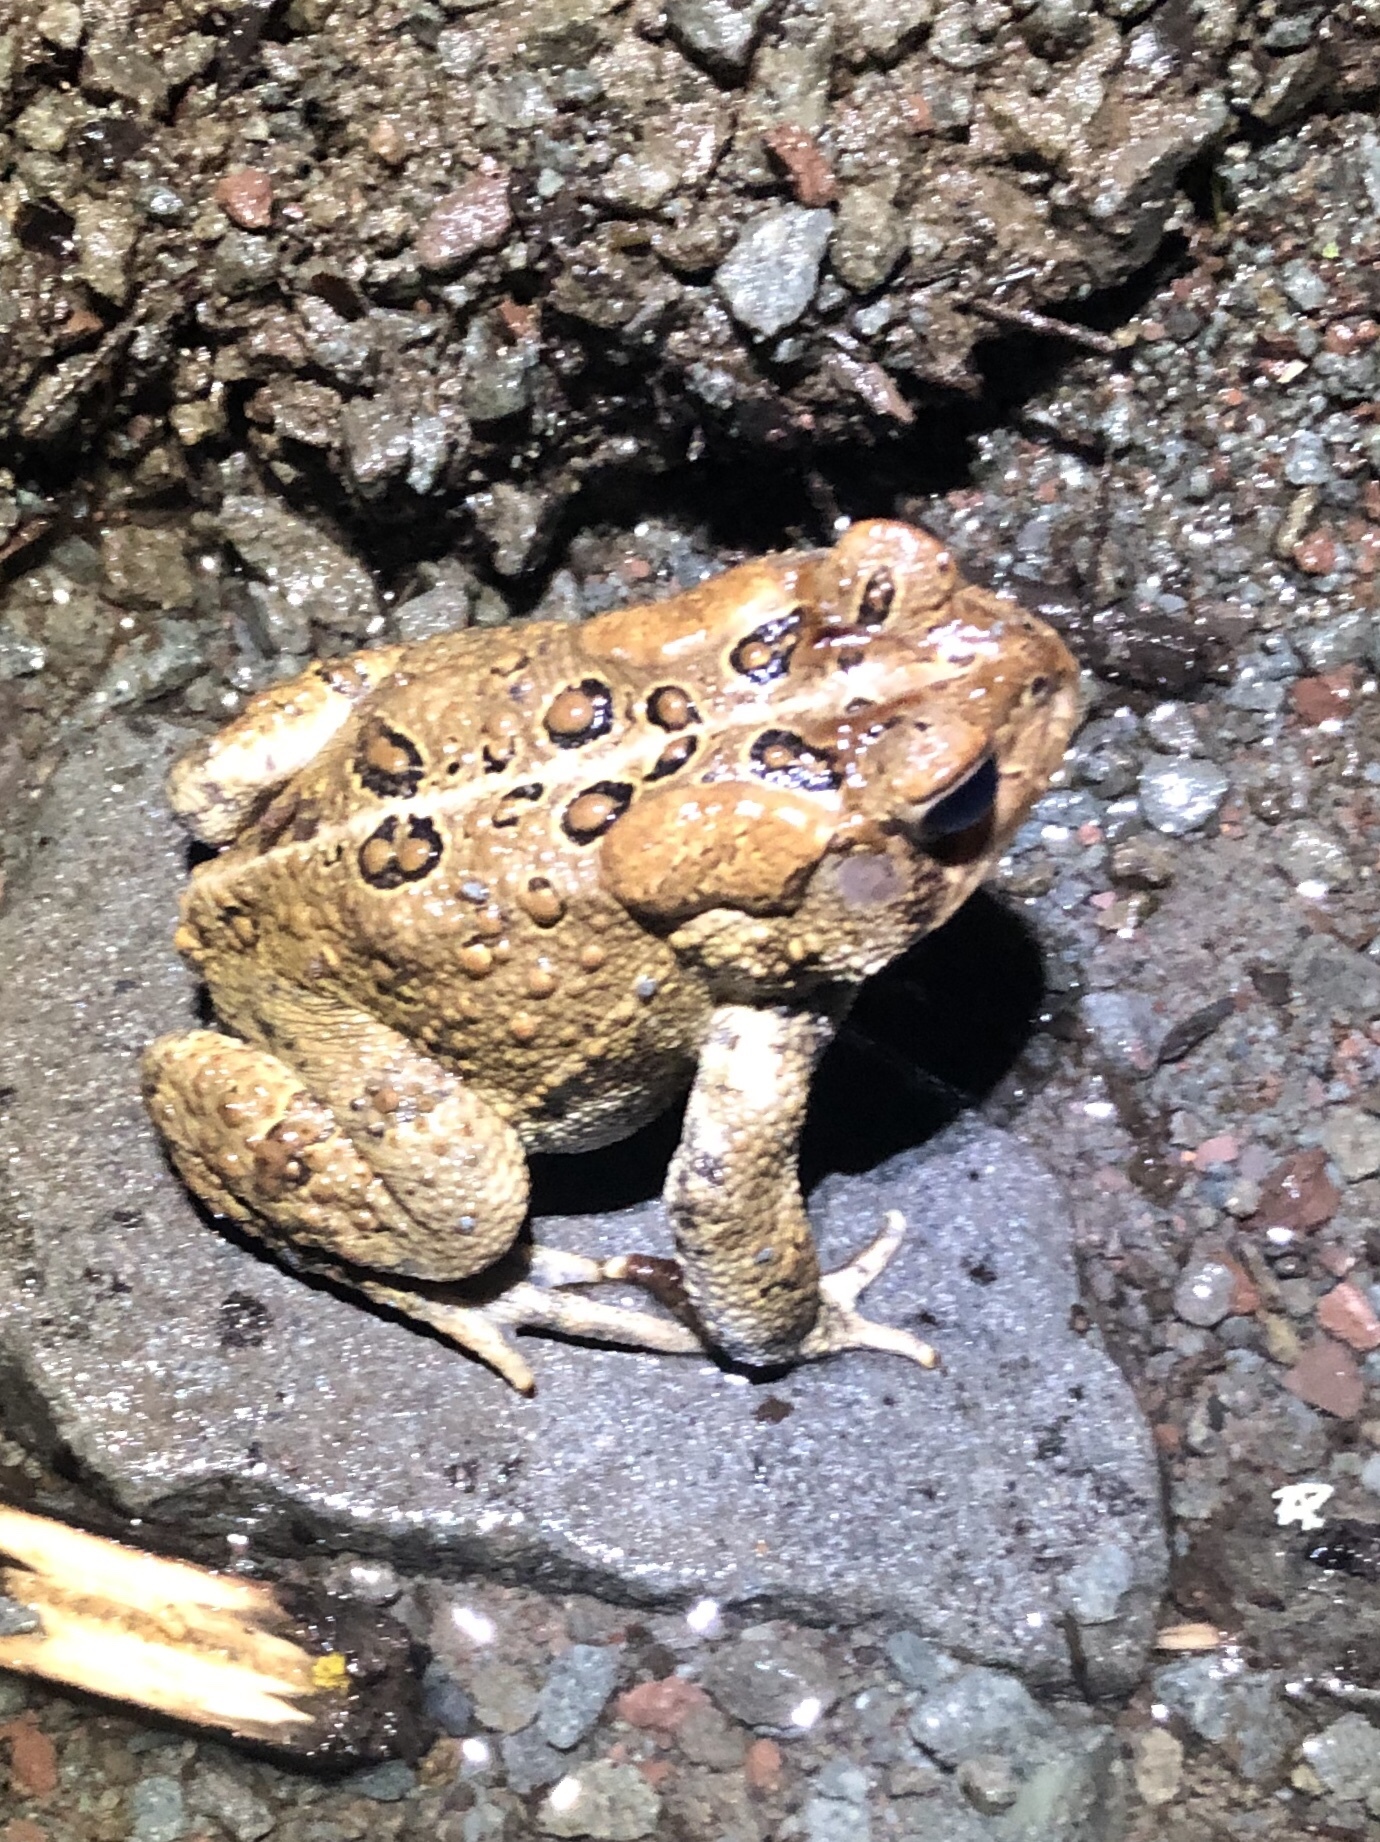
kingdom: Animalia
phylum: Chordata
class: Amphibia
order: Anura
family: Bufonidae
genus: Anaxyrus
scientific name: Anaxyrus americanus
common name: American toad
